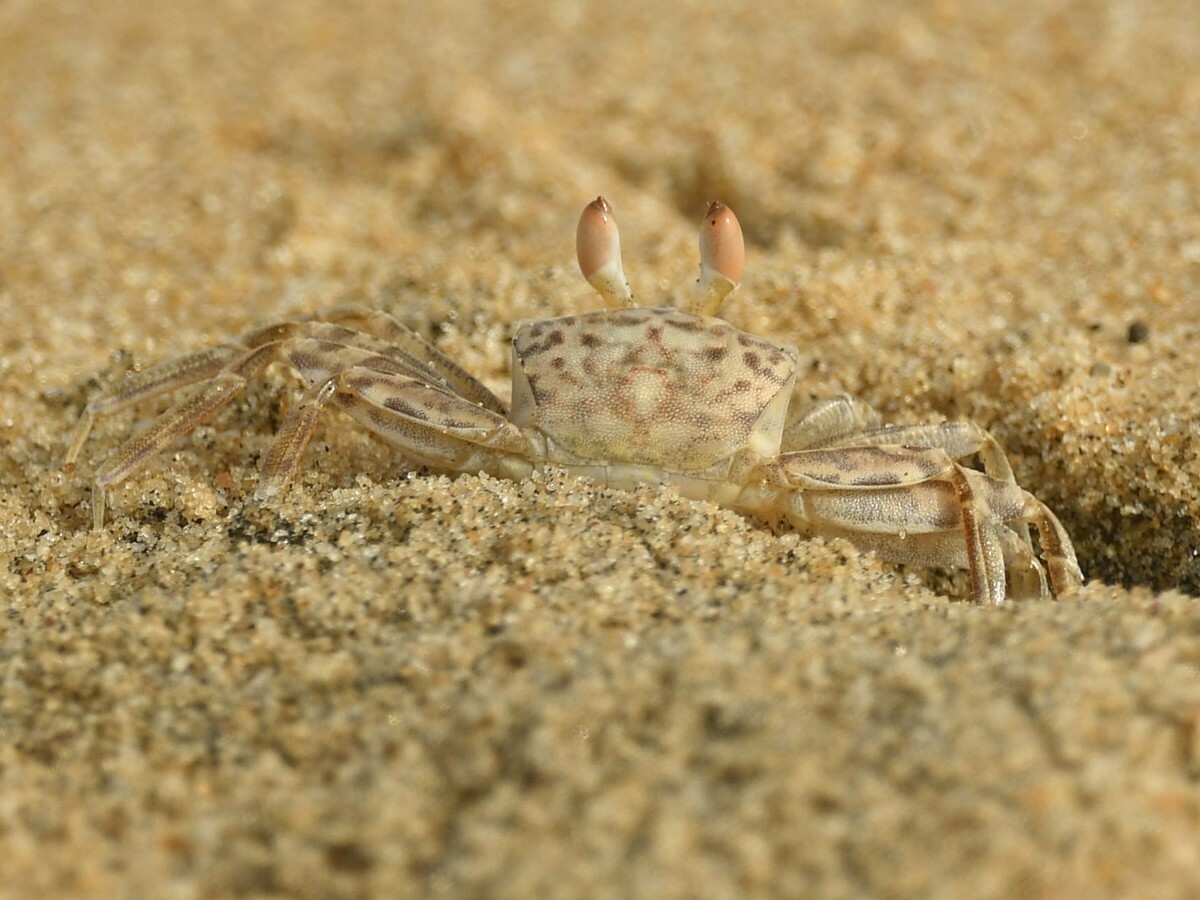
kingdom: Animalia
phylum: Arthropoda
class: Malacostraca
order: Decapoda
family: Ocypodidae
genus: Ocypode
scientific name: Ocypode pallidula
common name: Pallid ghost crab
